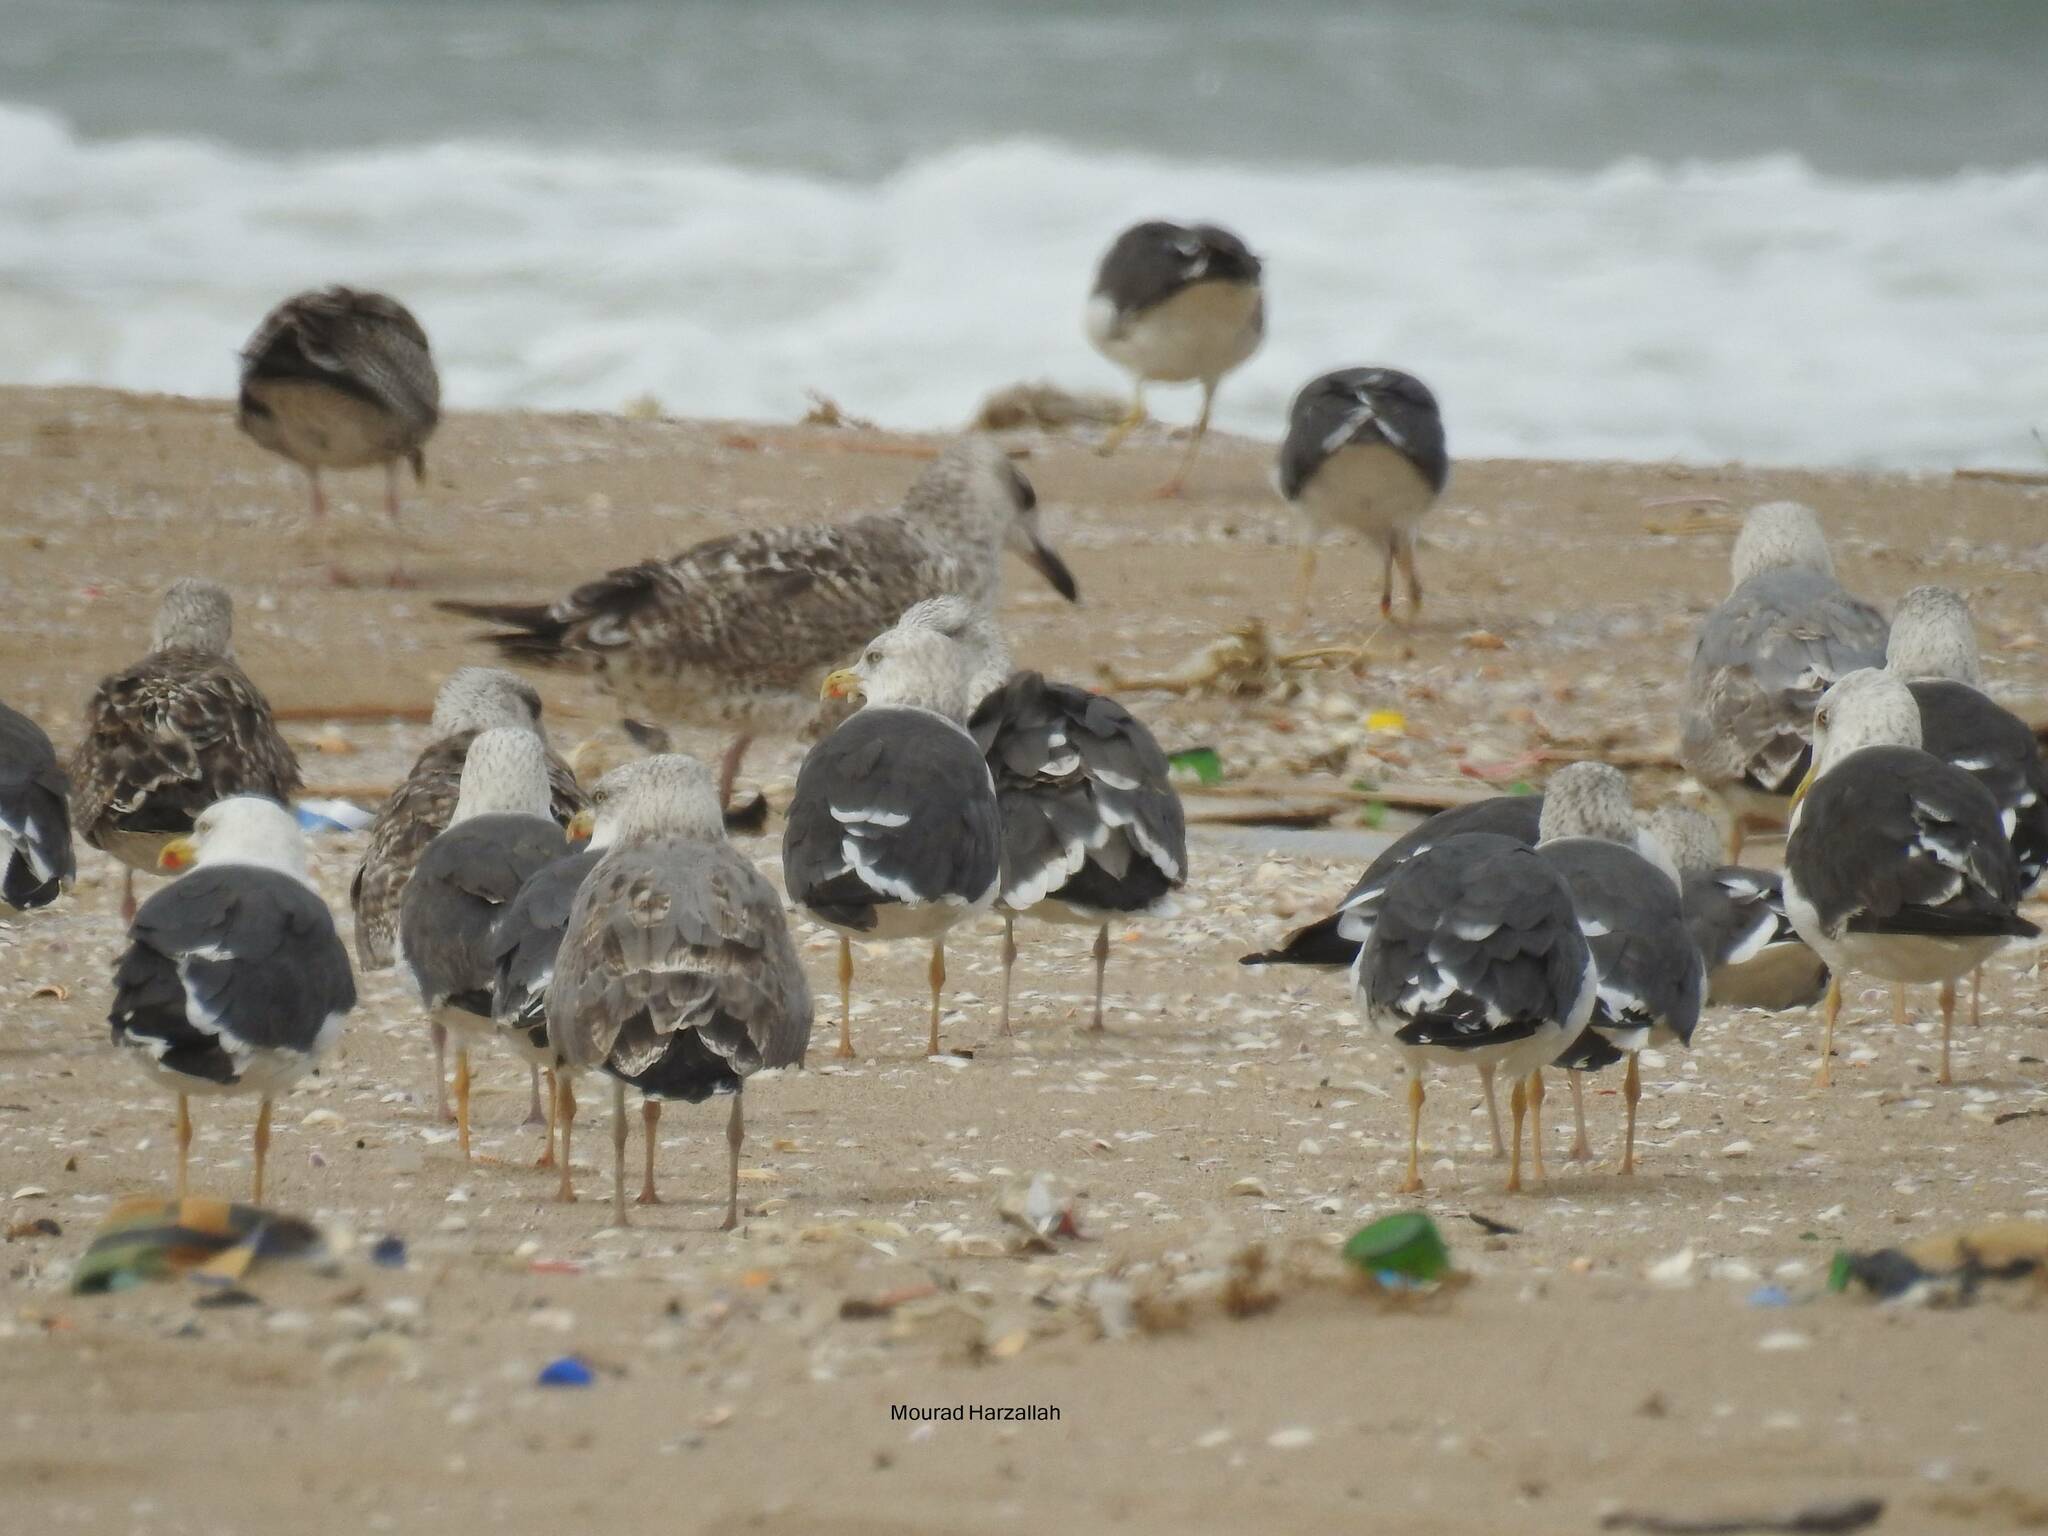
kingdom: Animalia
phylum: Chordata
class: Aves
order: Charadriiformes
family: Laridae
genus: Larus
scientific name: Larus fuscus
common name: Lesser black-backed gull
